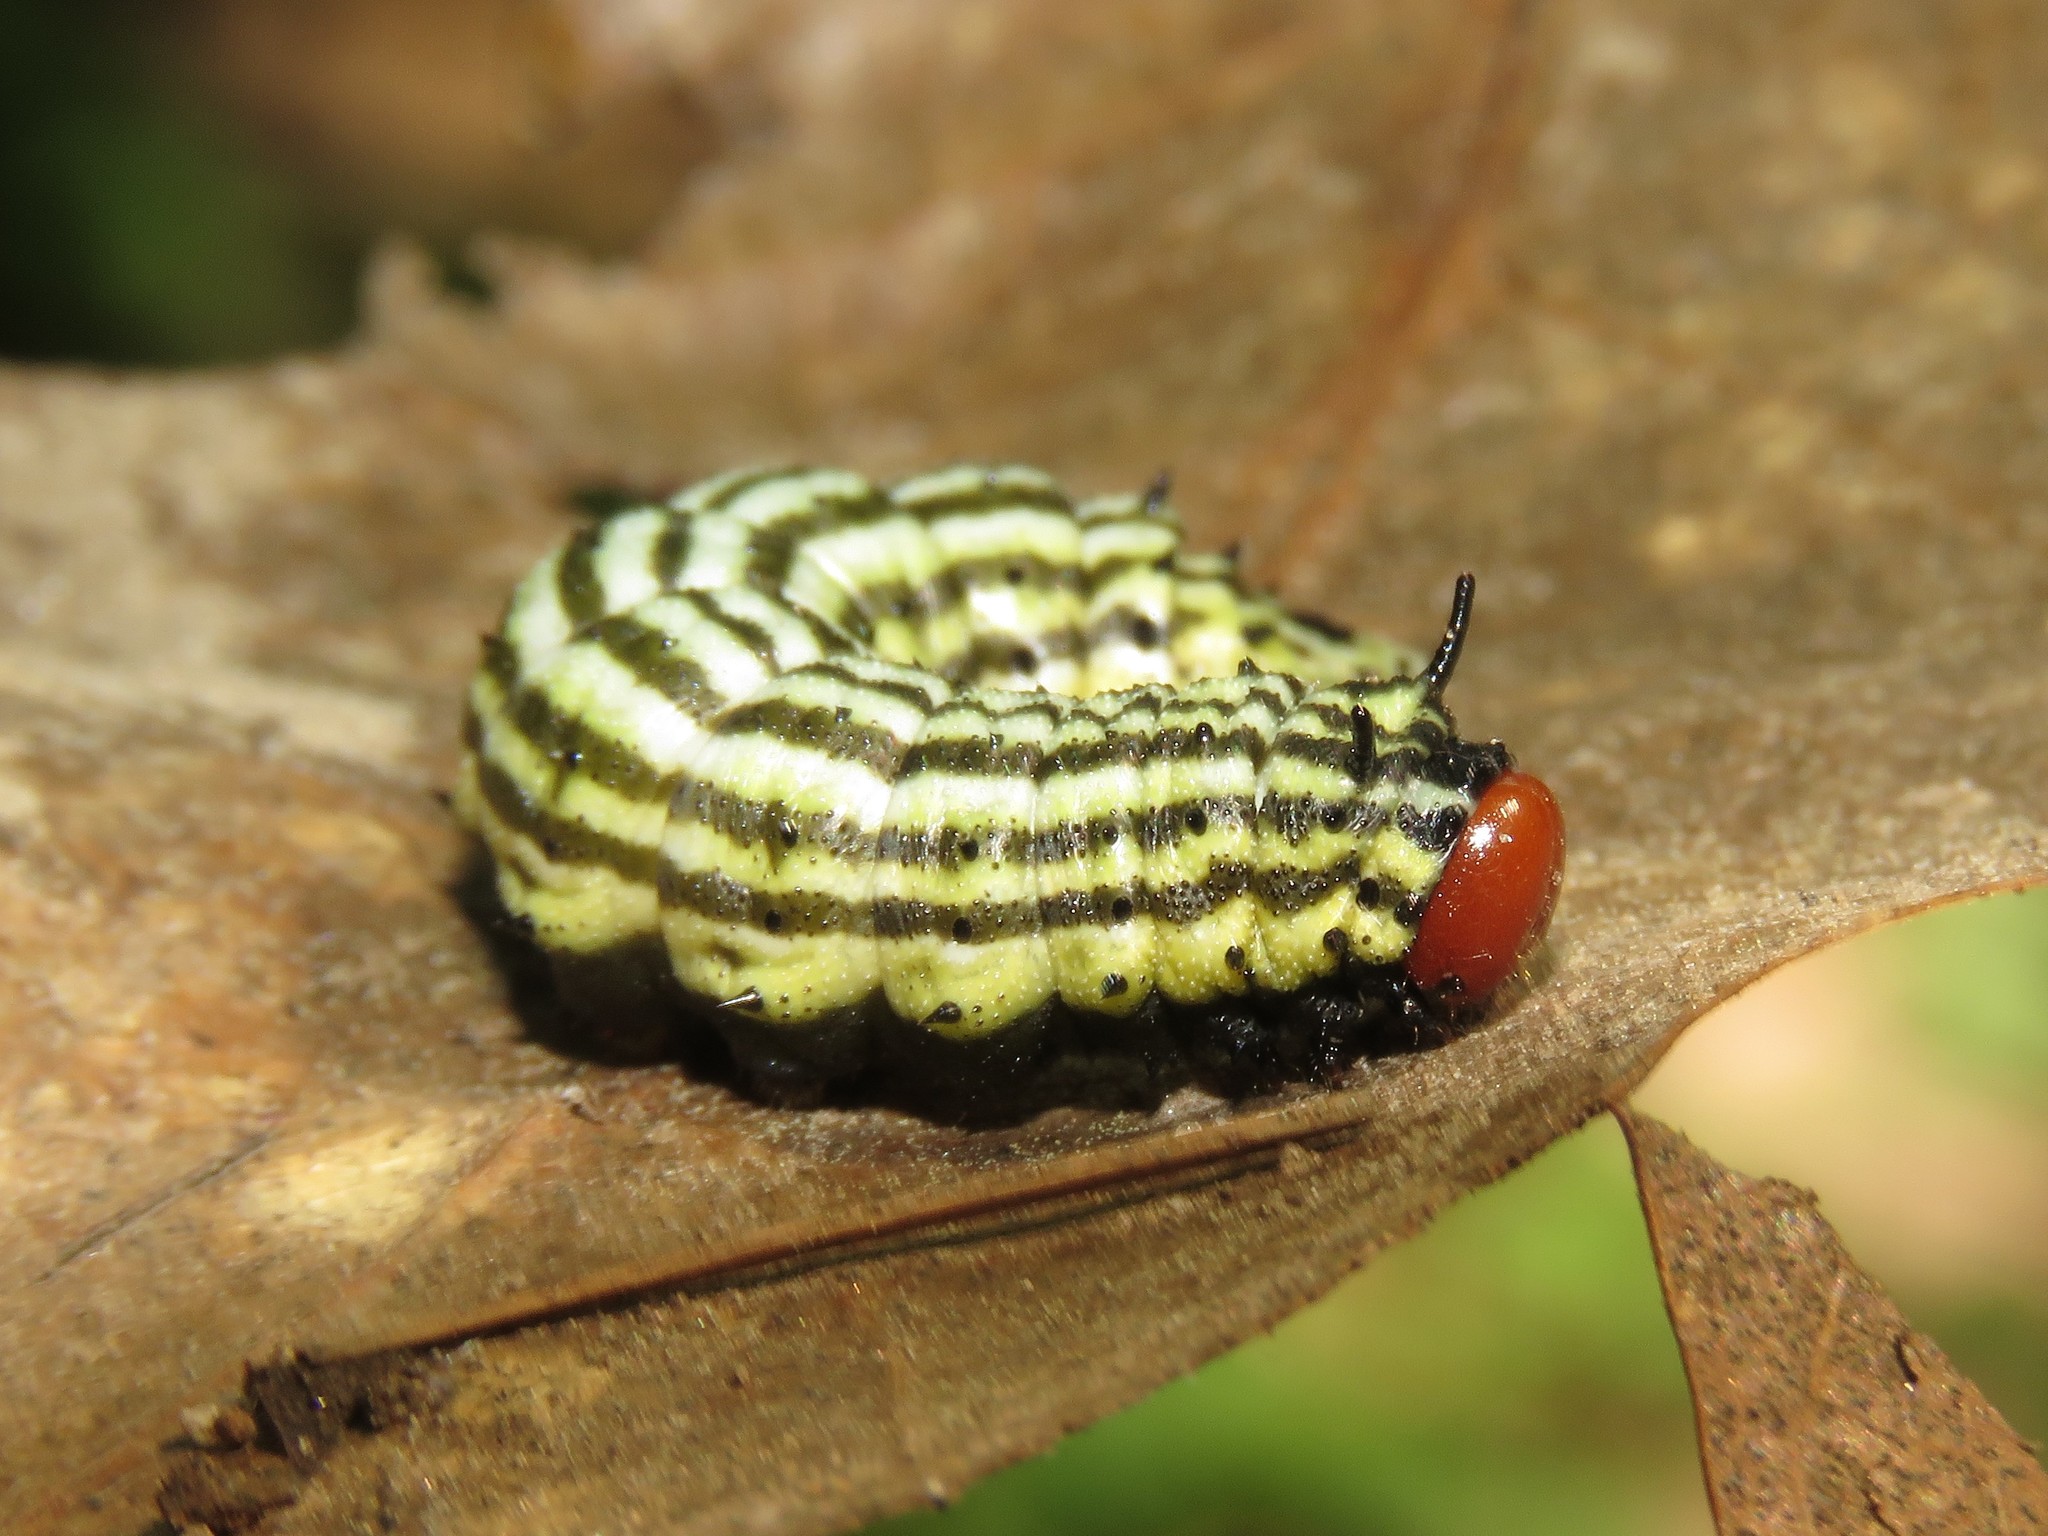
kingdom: Animalia
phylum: Arthropoda
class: Insecta
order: Lepidoptera
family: Saturniidae
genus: Dryocampa
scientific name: Dryocampa rubicunda
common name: Rosy maple moth
